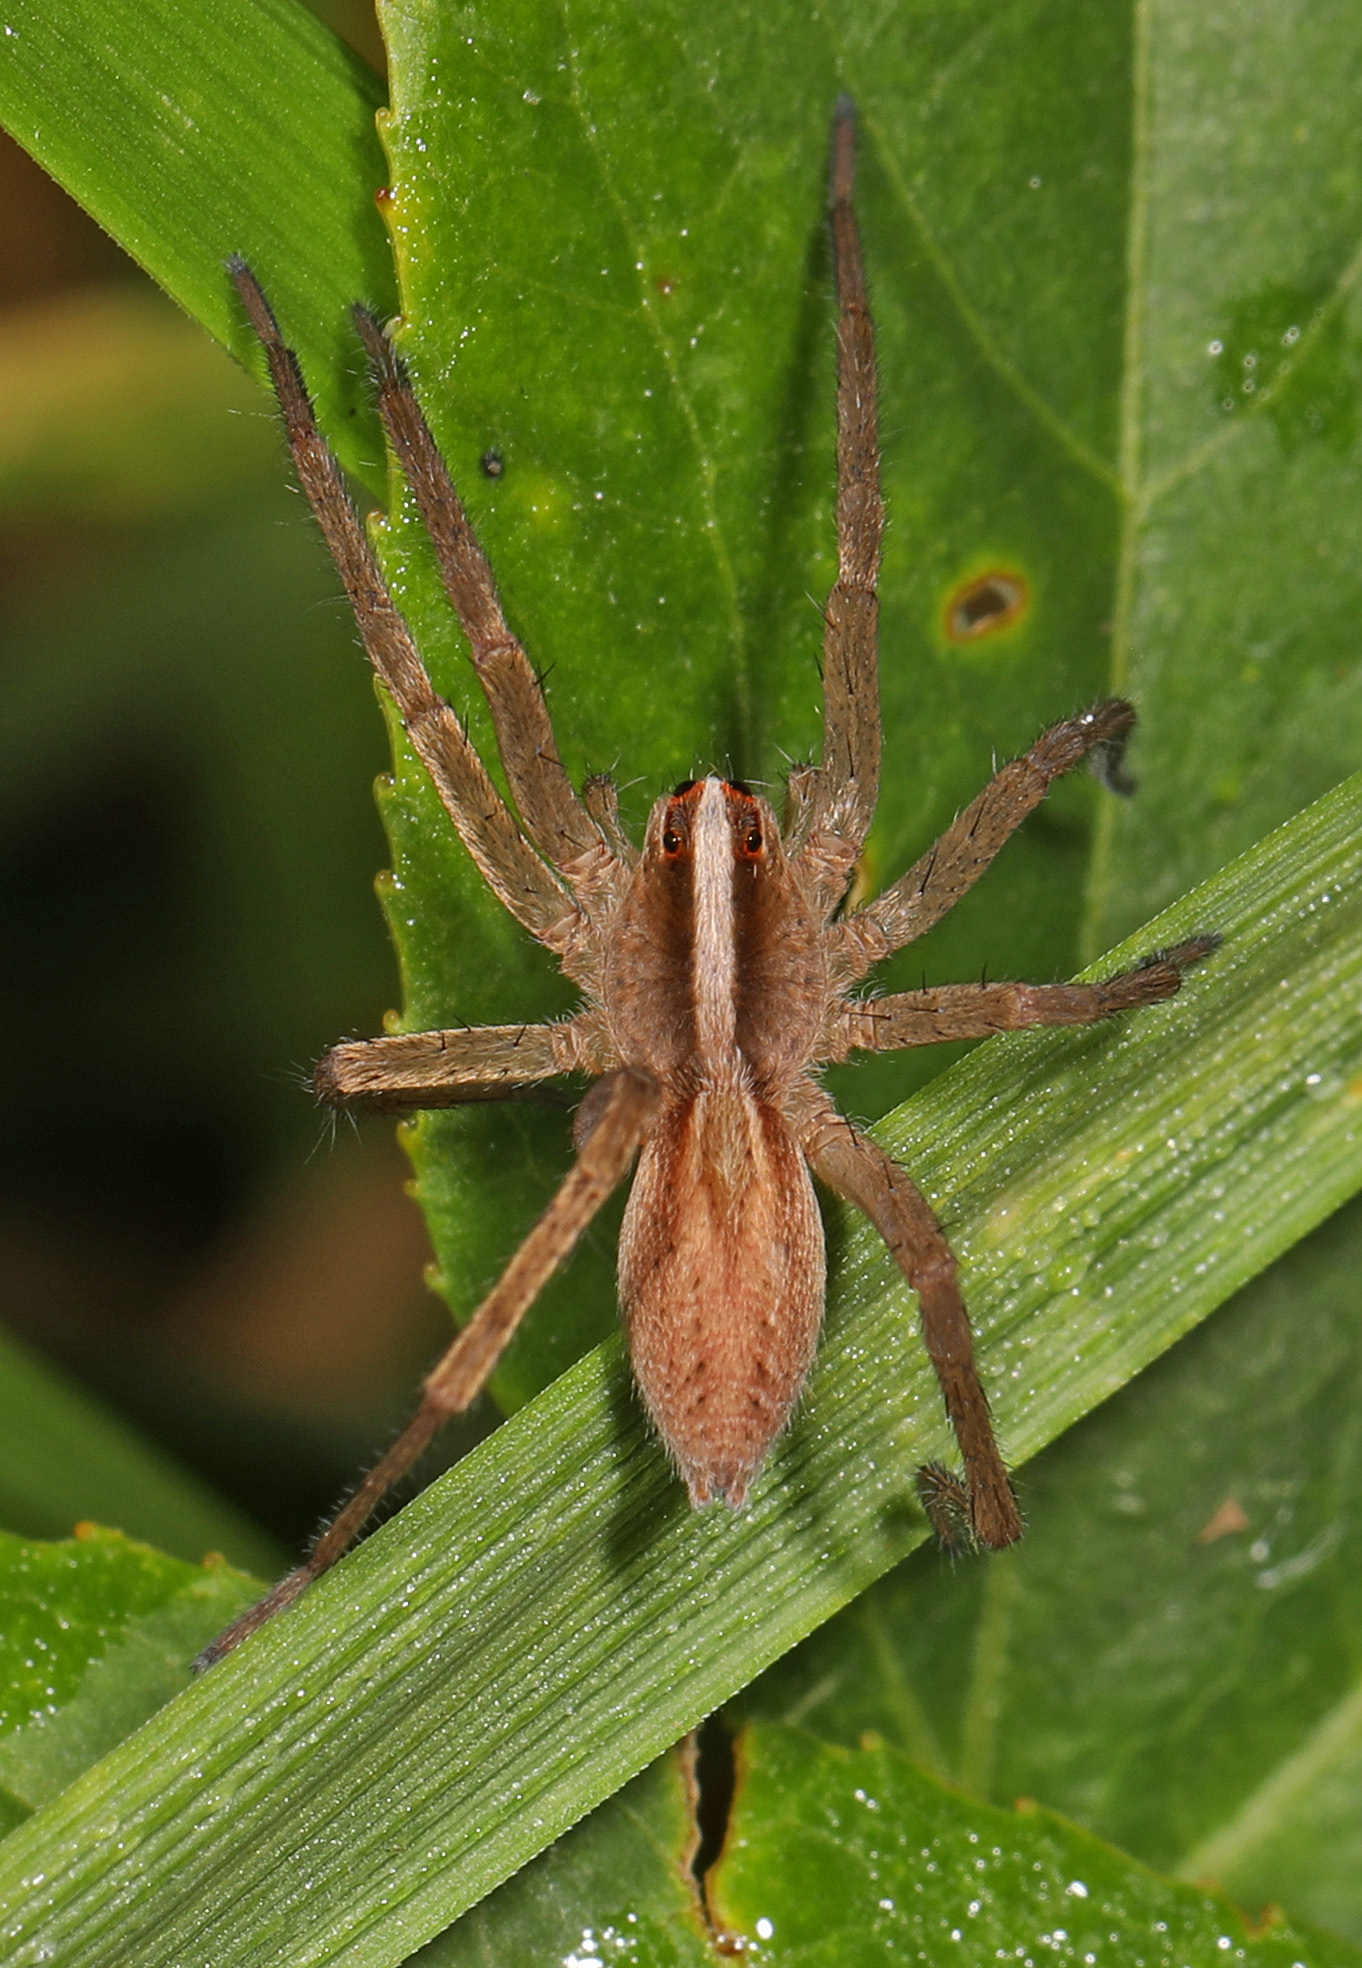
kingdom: Animalia
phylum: Arthropoda
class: Arachnida
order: Araneae
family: Lycosidae
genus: Rabidosa
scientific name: Rabidosa hentzi
